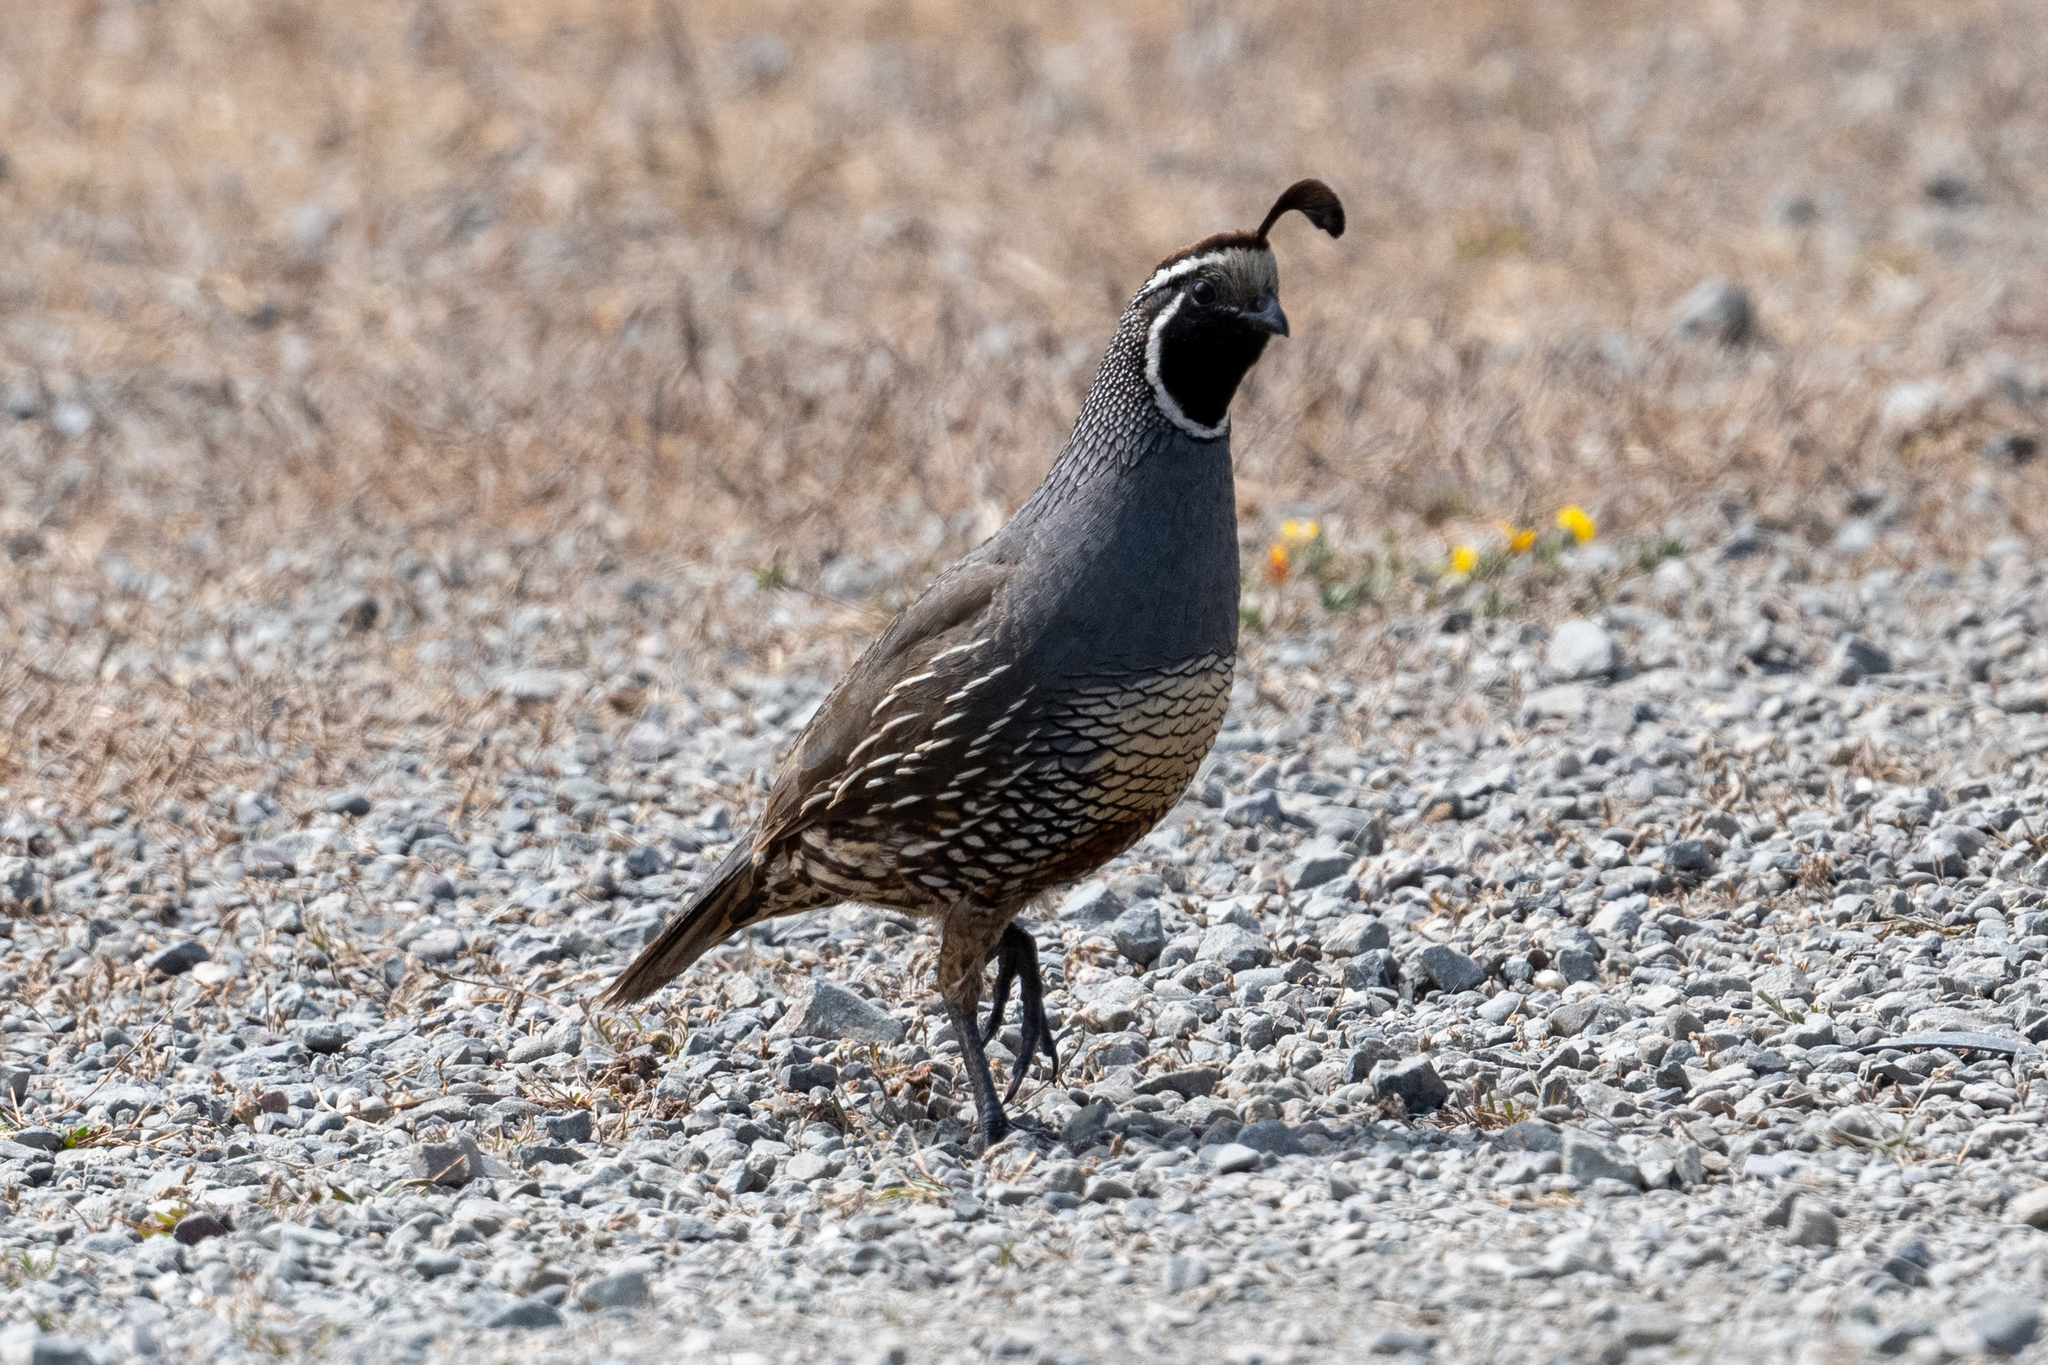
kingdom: Animalia
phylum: Chordata
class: Aves
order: Galliformes
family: Odontophoridae
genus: Callipepla
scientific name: Callipepla californica
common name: California quail
